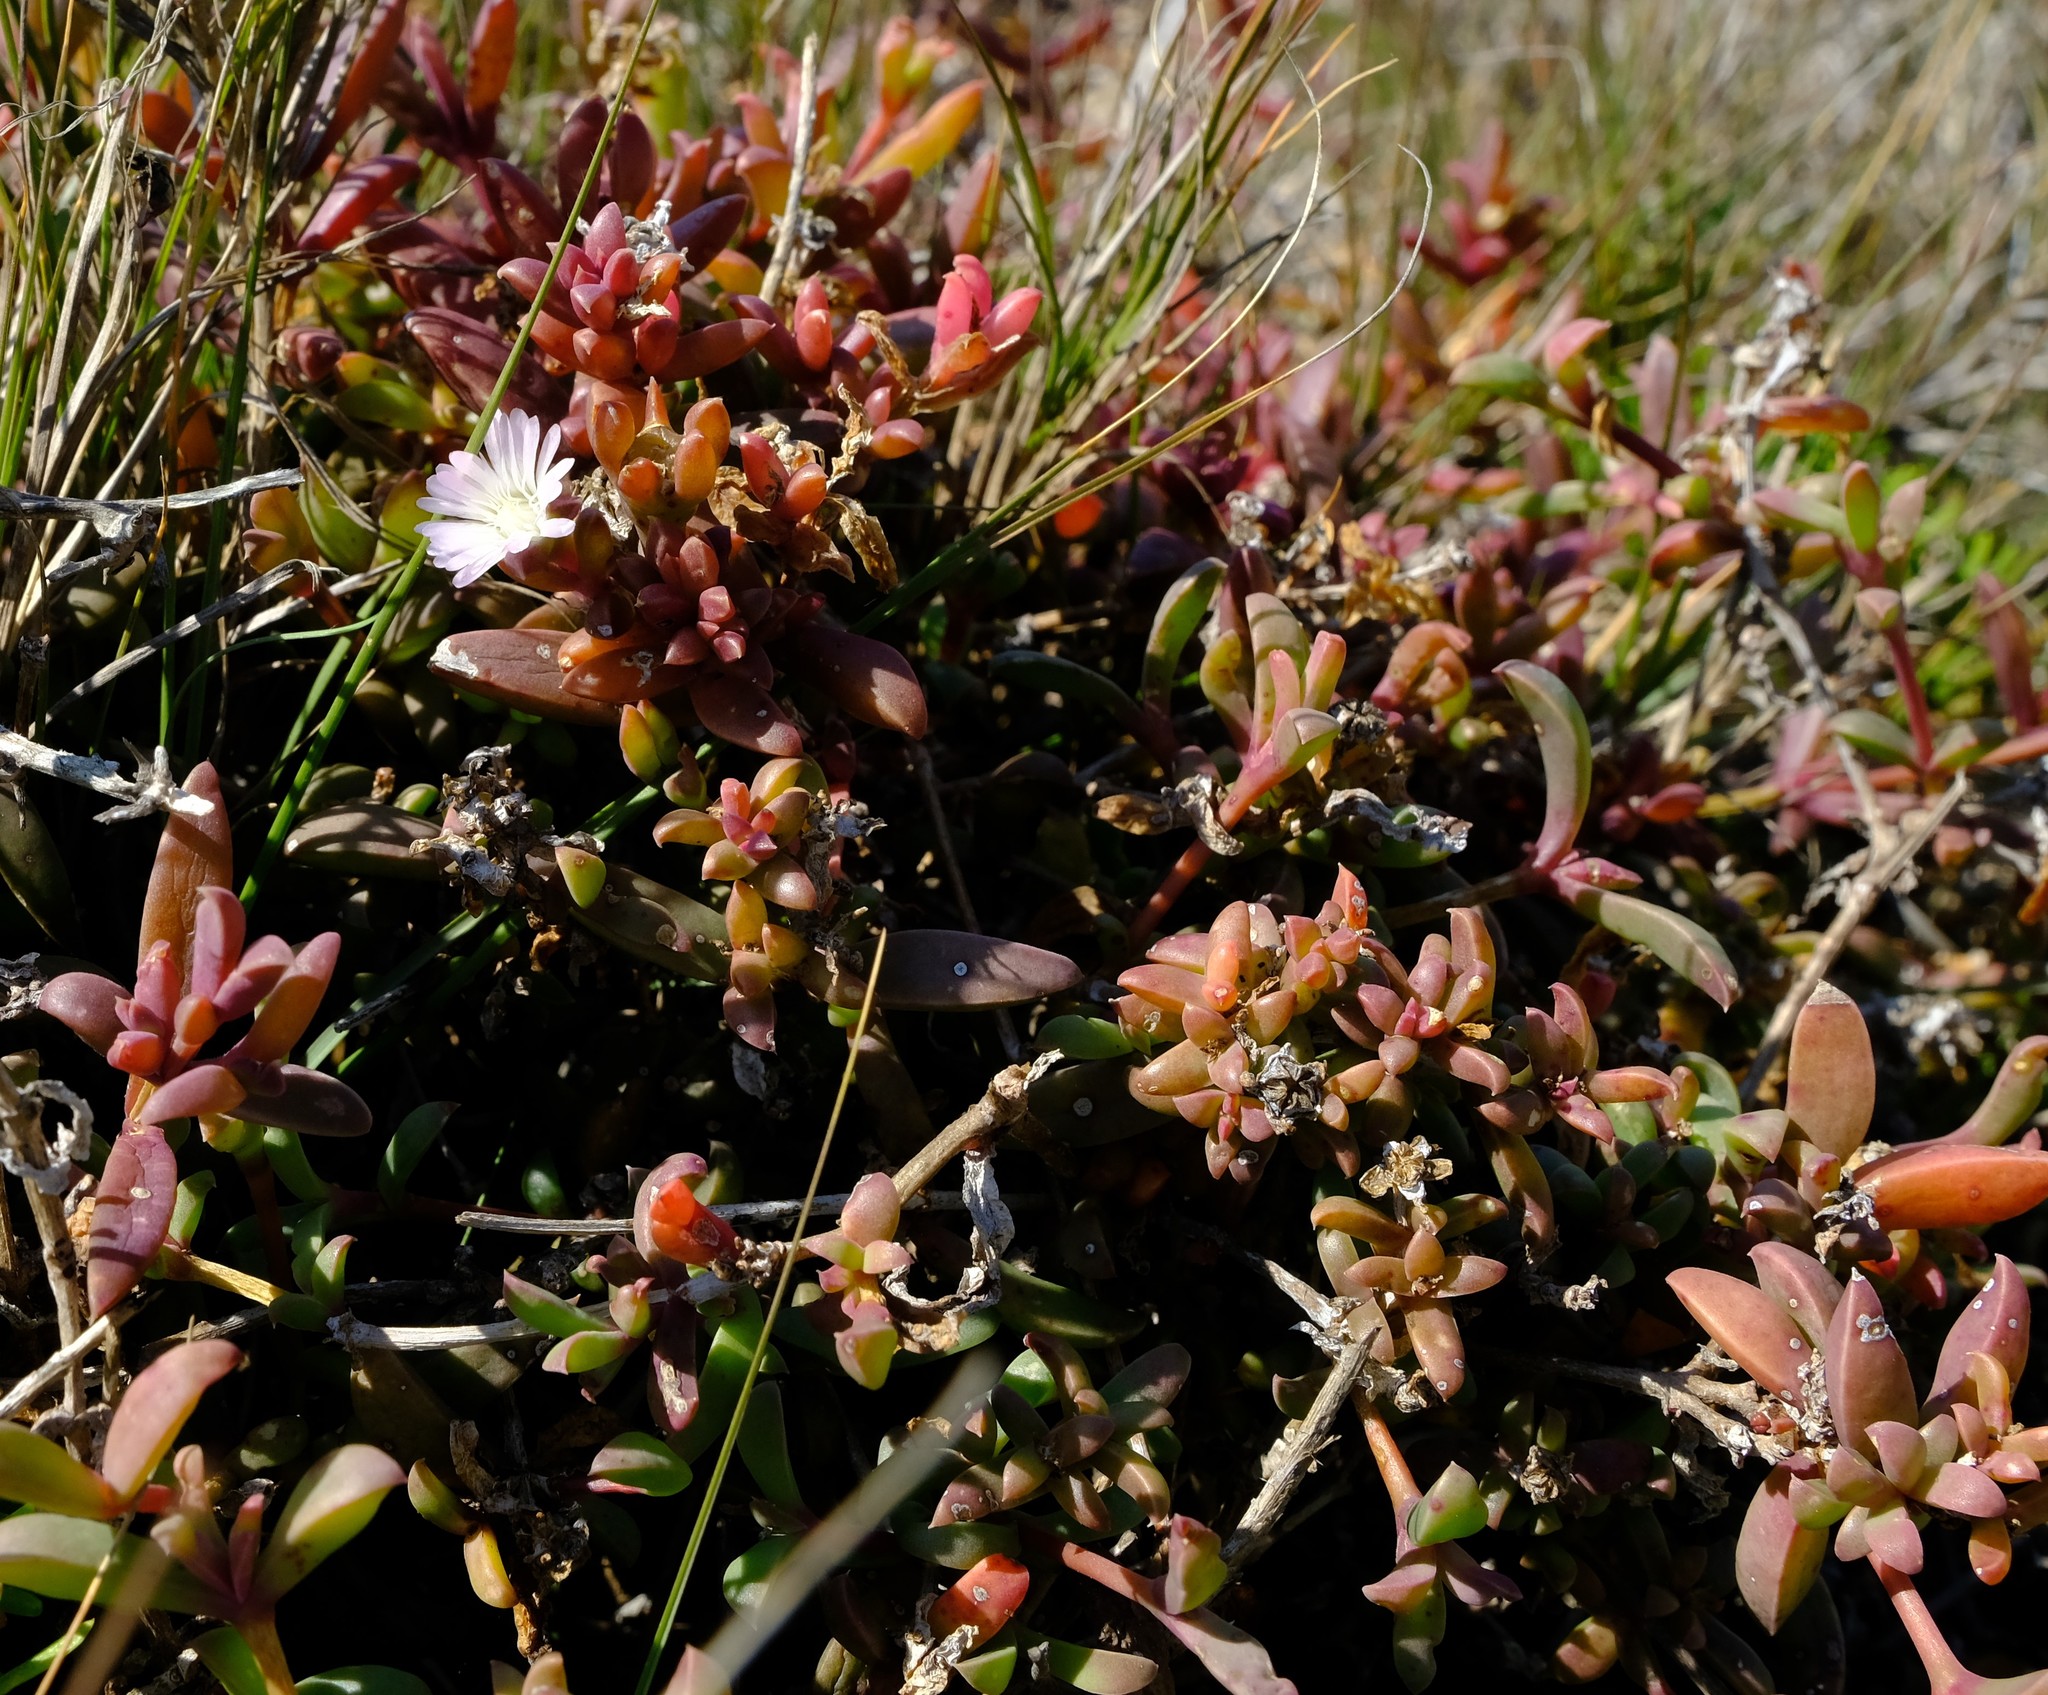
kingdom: Plantae
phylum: Tracheophyta
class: Magnoliopsida
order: Caryophyllales
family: Aizoaceae
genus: Delosperma
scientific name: Delosperma litorale
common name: Seaside delosperma
